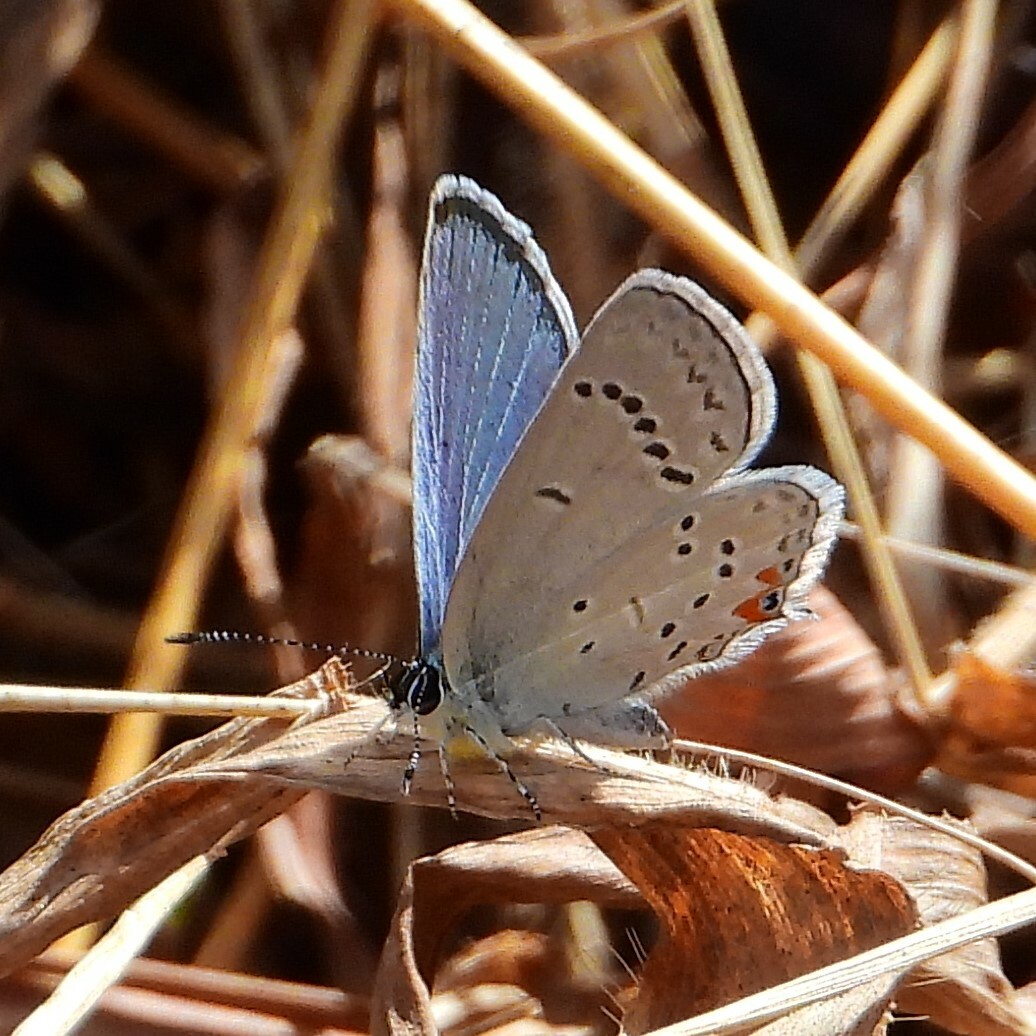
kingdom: Animalia
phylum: Arthropoda
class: Insecta
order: Lepidoptera
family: Lycaenidae
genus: Elkalyce
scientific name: Elkalyce comyntas
